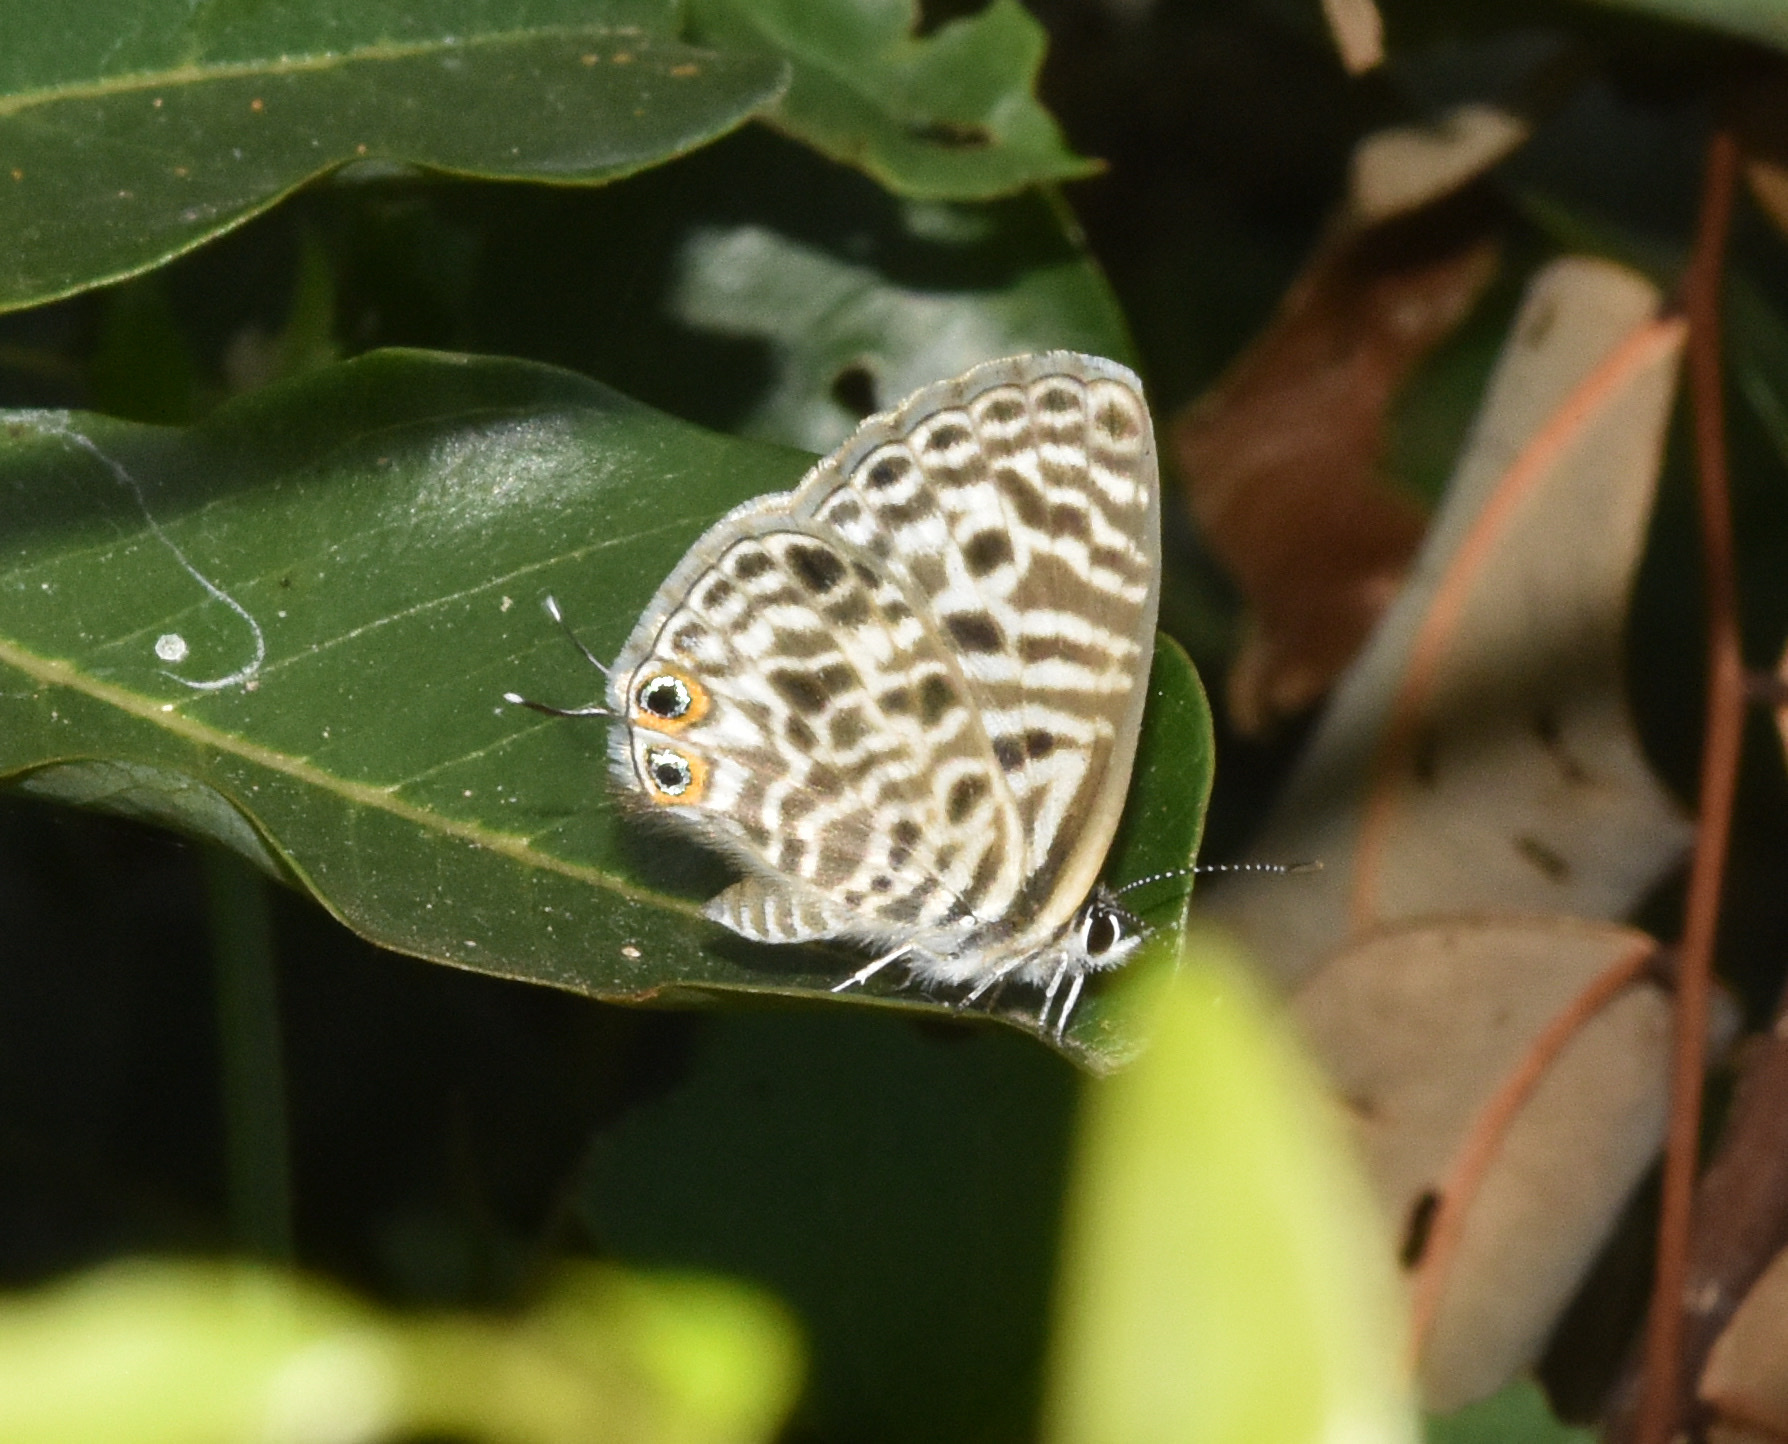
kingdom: Animalia
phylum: Arthropoda
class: Insecta
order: Lepidoptera
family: Lycaenidae
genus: Leptotes
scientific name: Leptotes
